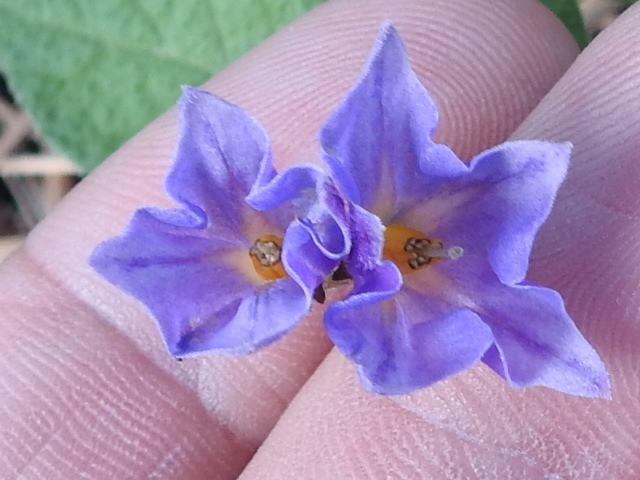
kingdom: Plantae
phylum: Tracheophyta
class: Magnoliopsida
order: Solanales
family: Solanaceae
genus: Solanum
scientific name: Solanum stoloniferum
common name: Fendler's nighshade
